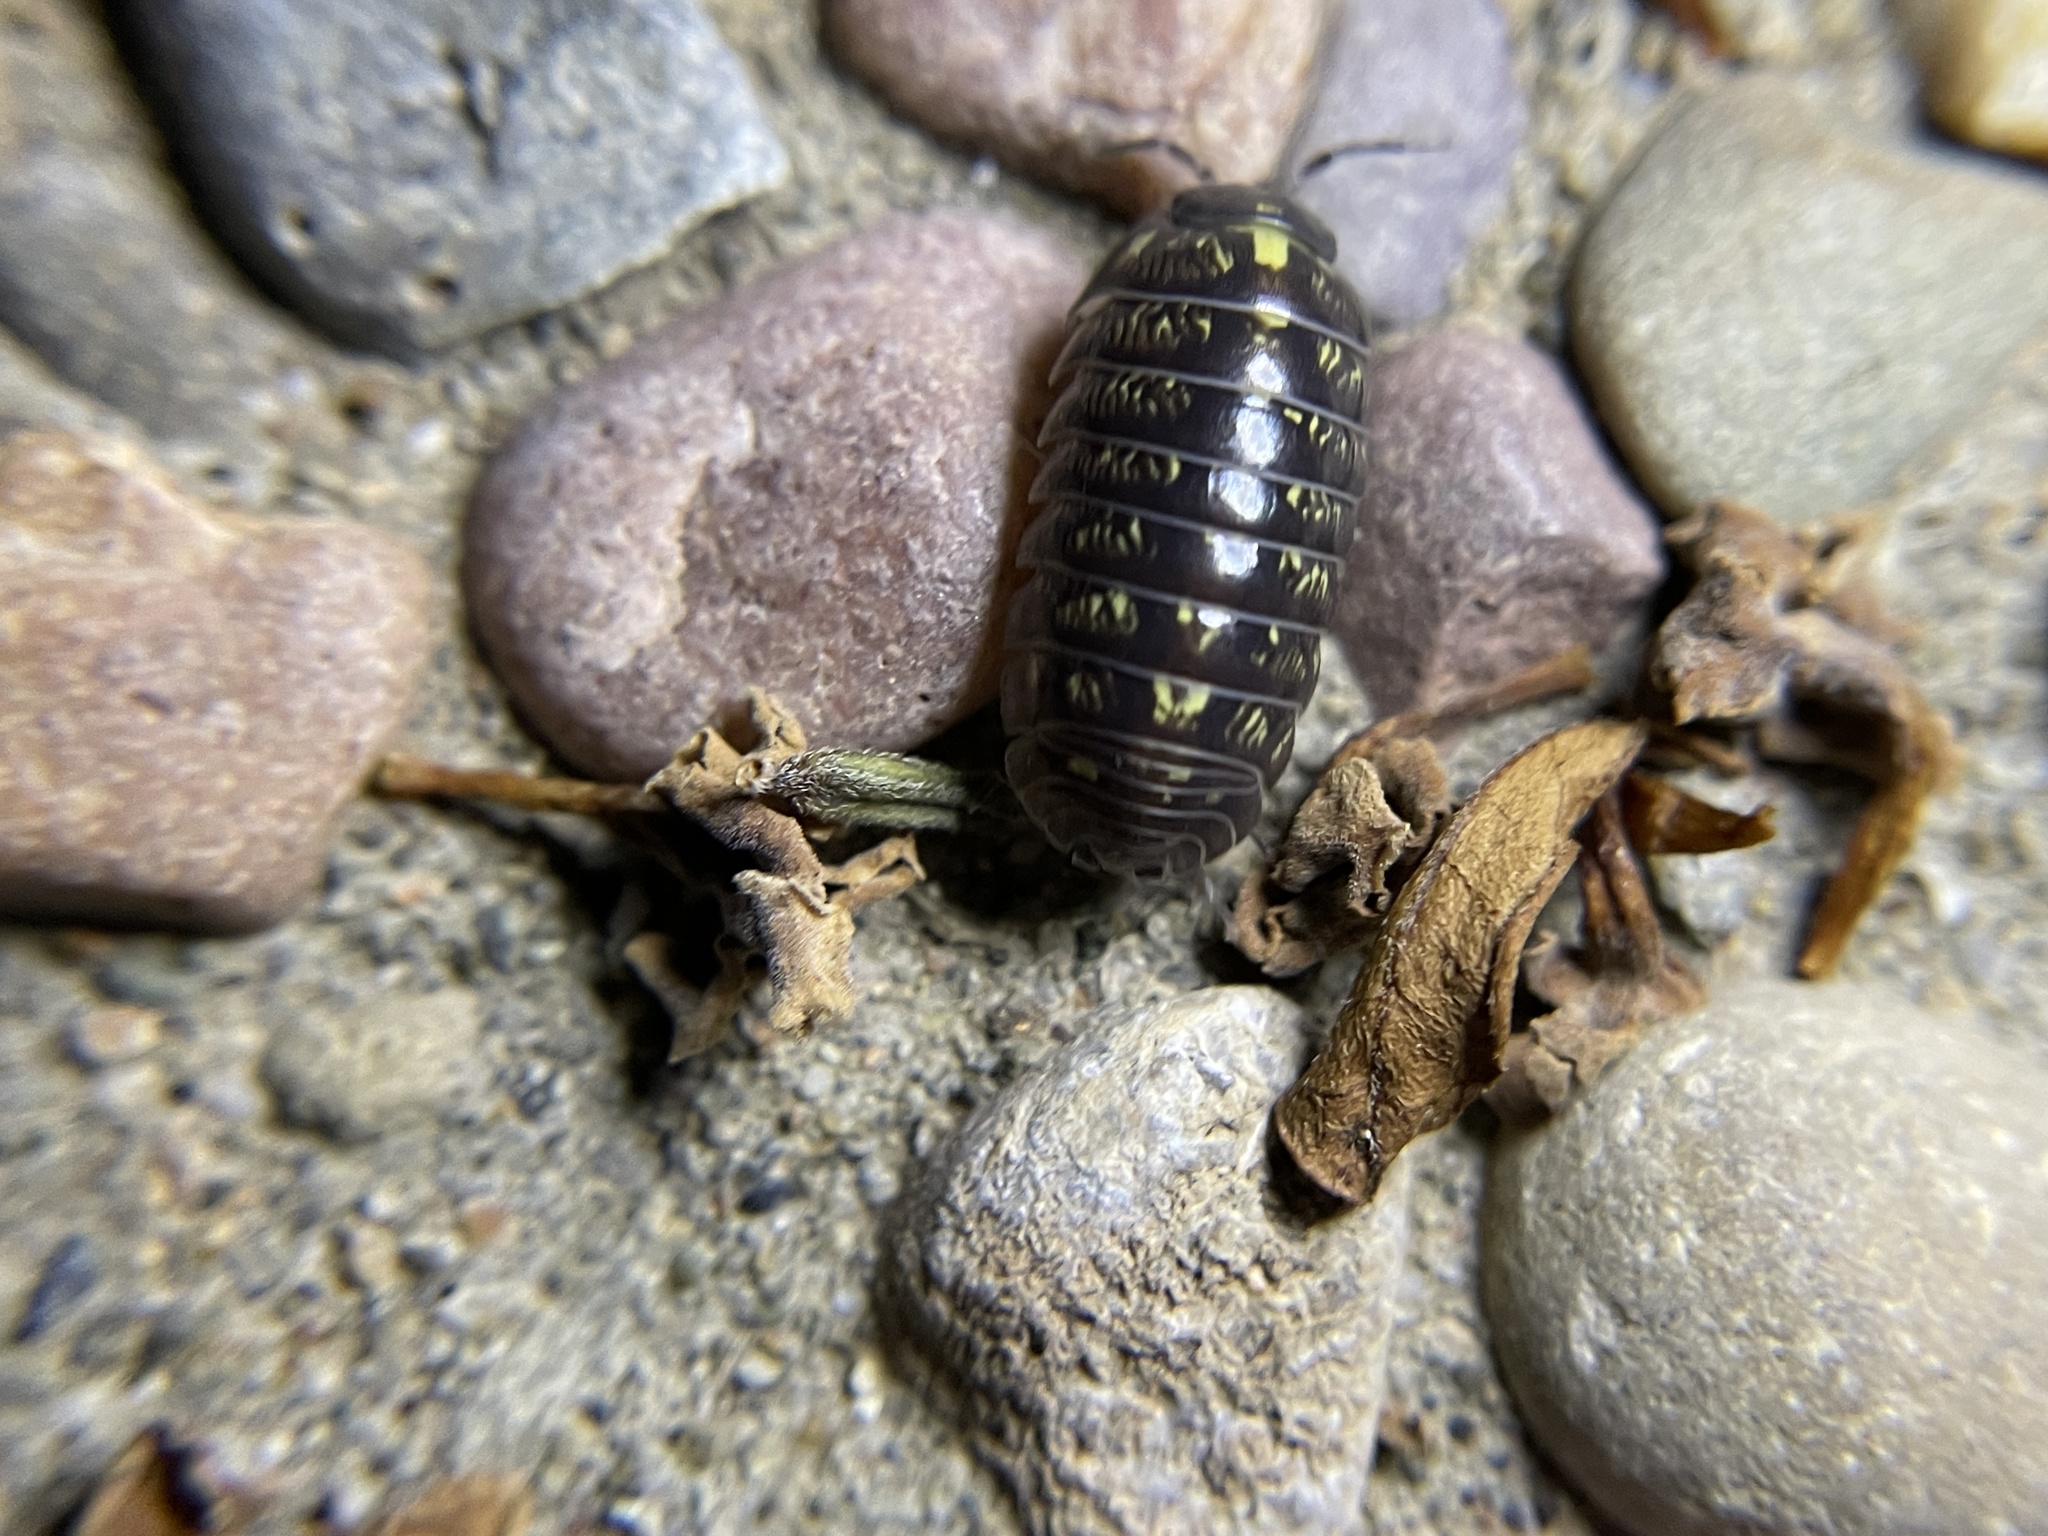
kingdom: Animalia
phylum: Arthropoda
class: Malacostraca
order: Isopoda
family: Armadillidiidae
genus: Armadillidium
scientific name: Armadillidium vulgare
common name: Common pill woodlouse
